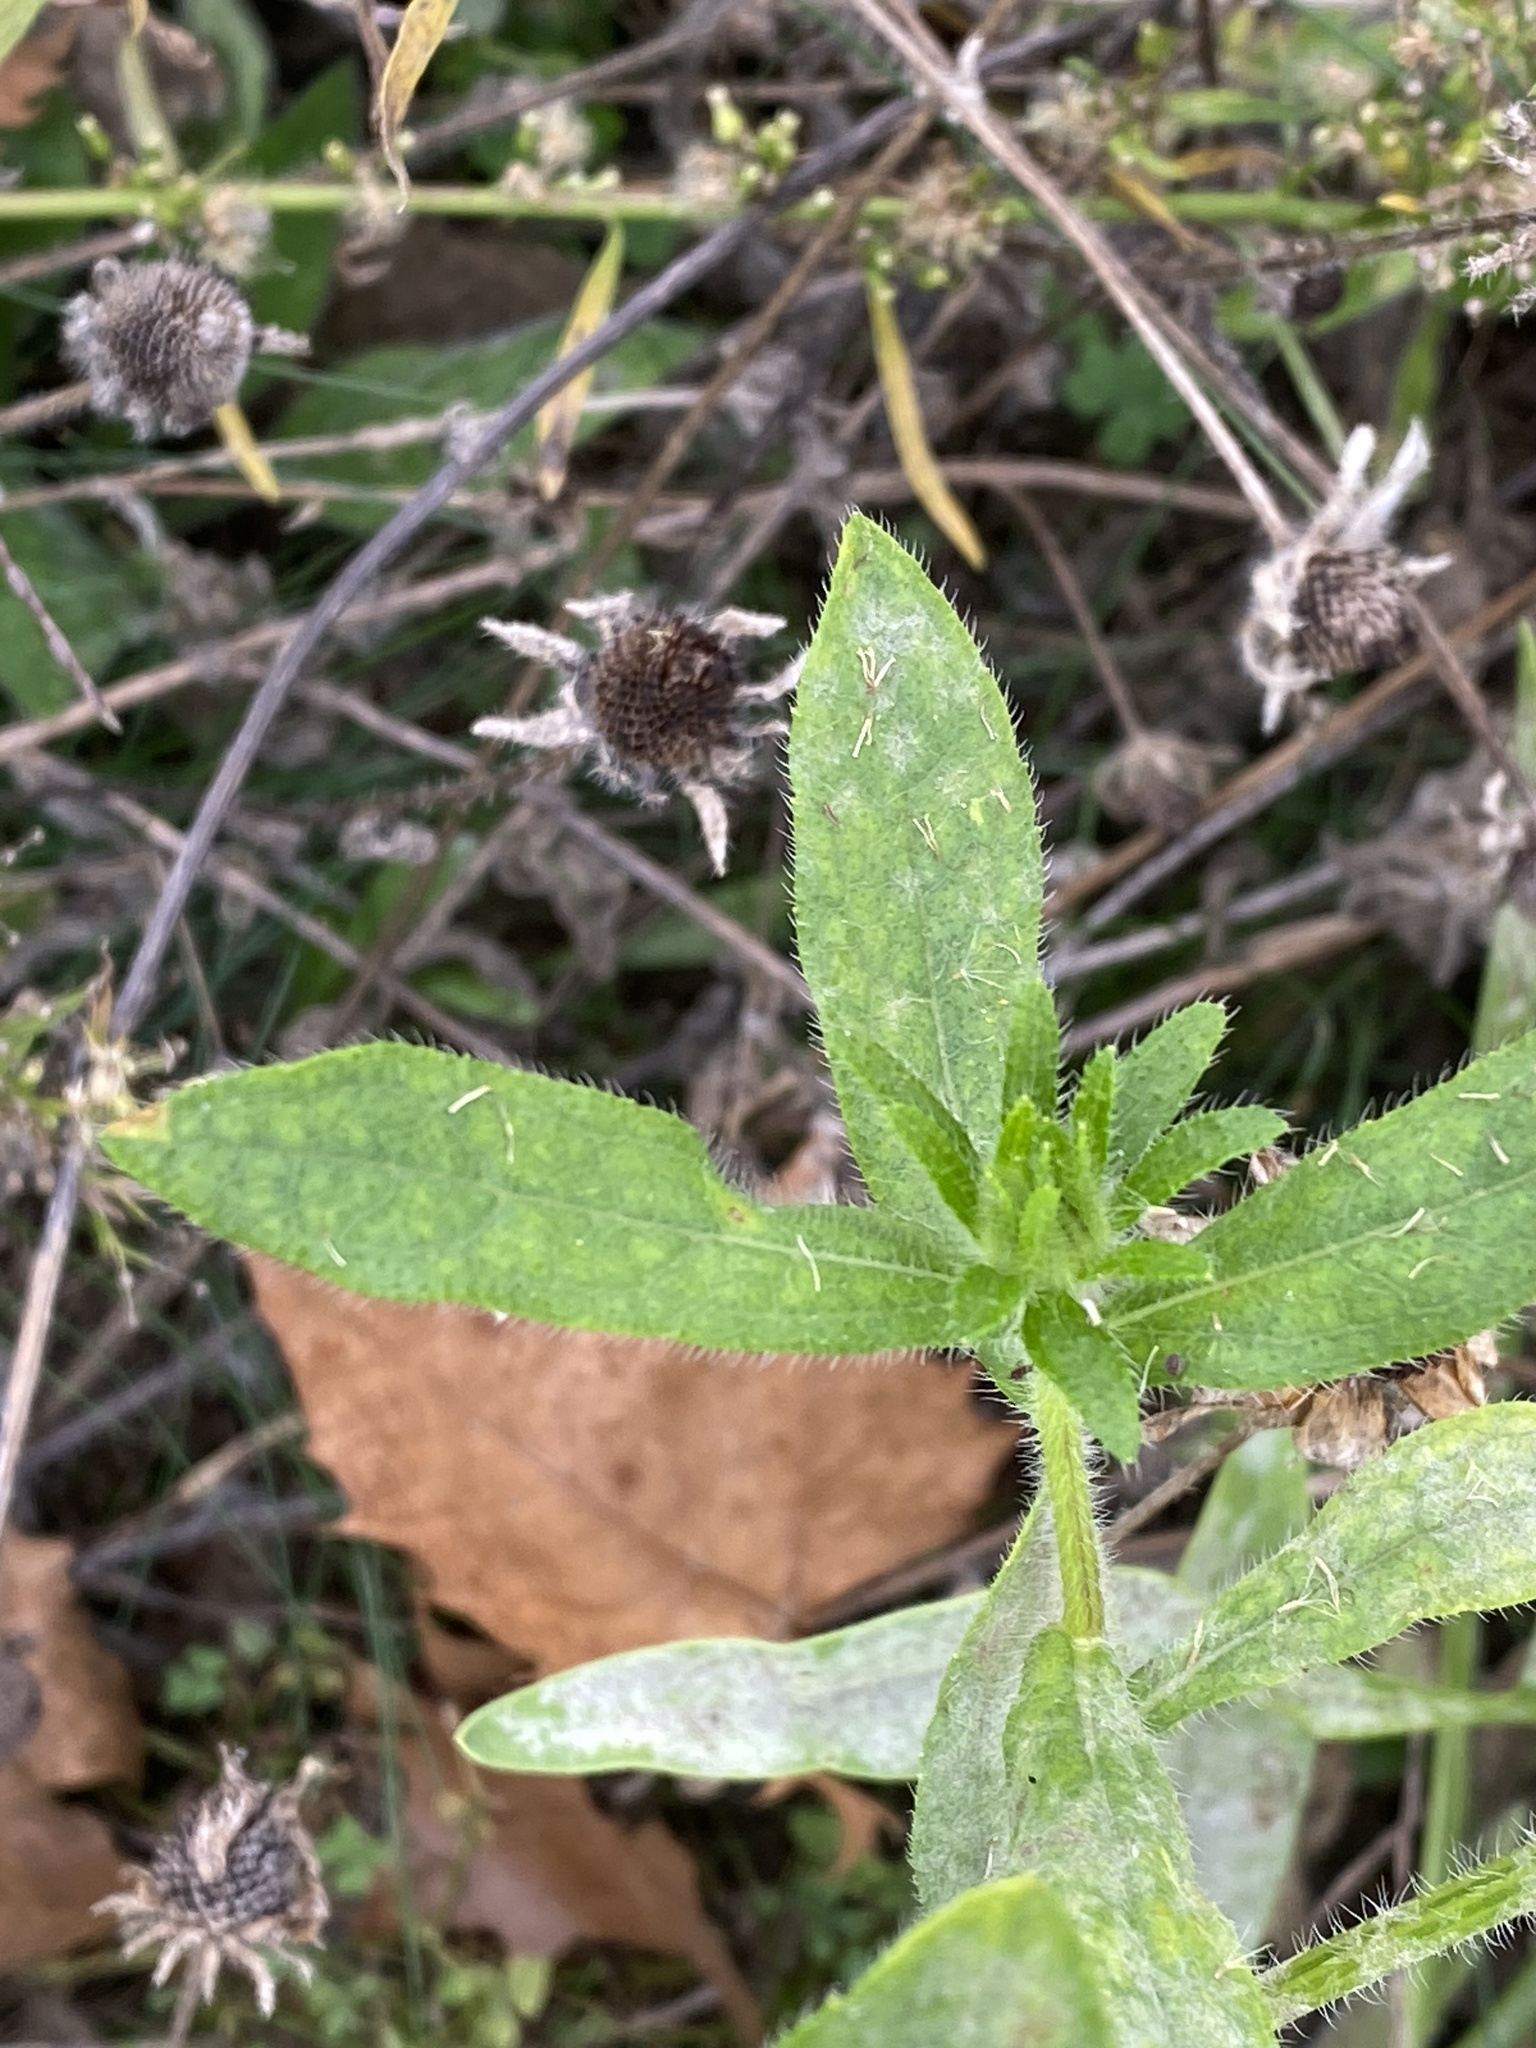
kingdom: Plantae
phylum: Tracheophyta
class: Magnoliopsida
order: Asterales
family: Asteraceae
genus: Rudbeckia
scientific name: Rudbeckia hirta
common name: Black-eyed-susan
